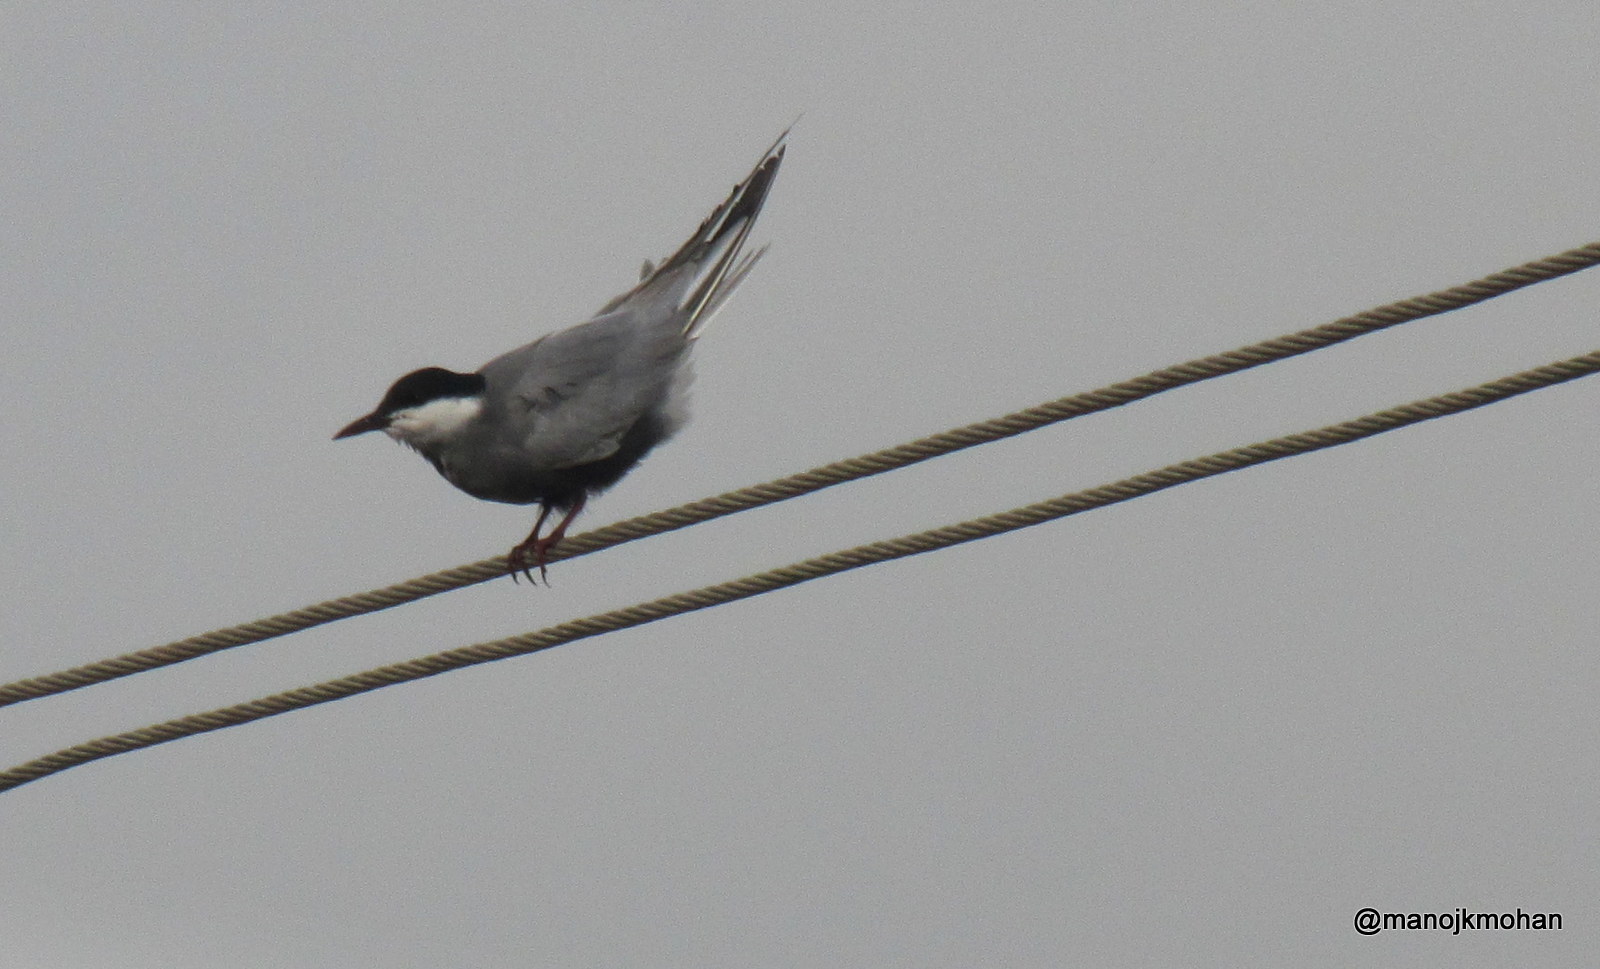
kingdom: Animalia
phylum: Chordata
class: Aves
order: Charadriiformes
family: Laridae
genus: Chlidonias
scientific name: Chlidonias hybrida
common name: Whiskered tern
